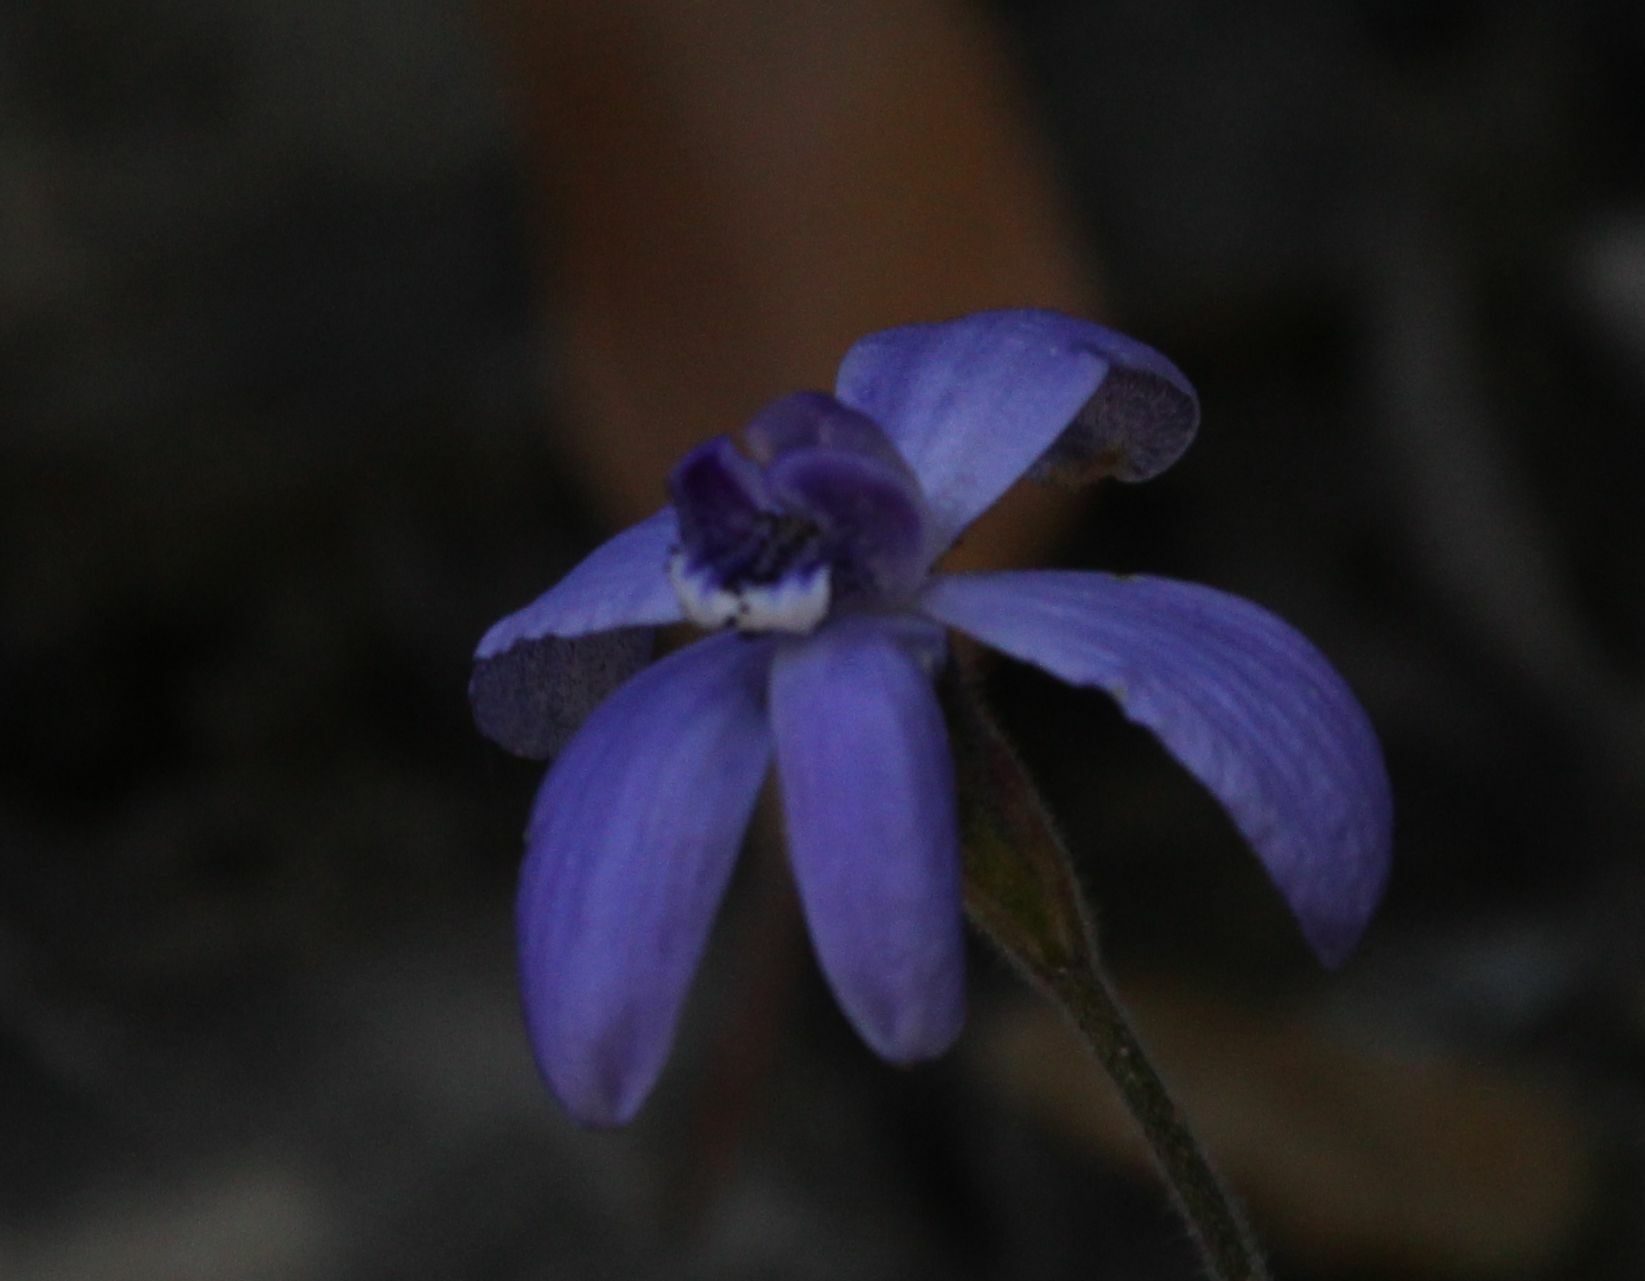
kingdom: Plantae
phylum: Tracheophyta
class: Liliopsida
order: Asparagales
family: Orchidaceae
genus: Caladenia
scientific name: Caladenia sericea
